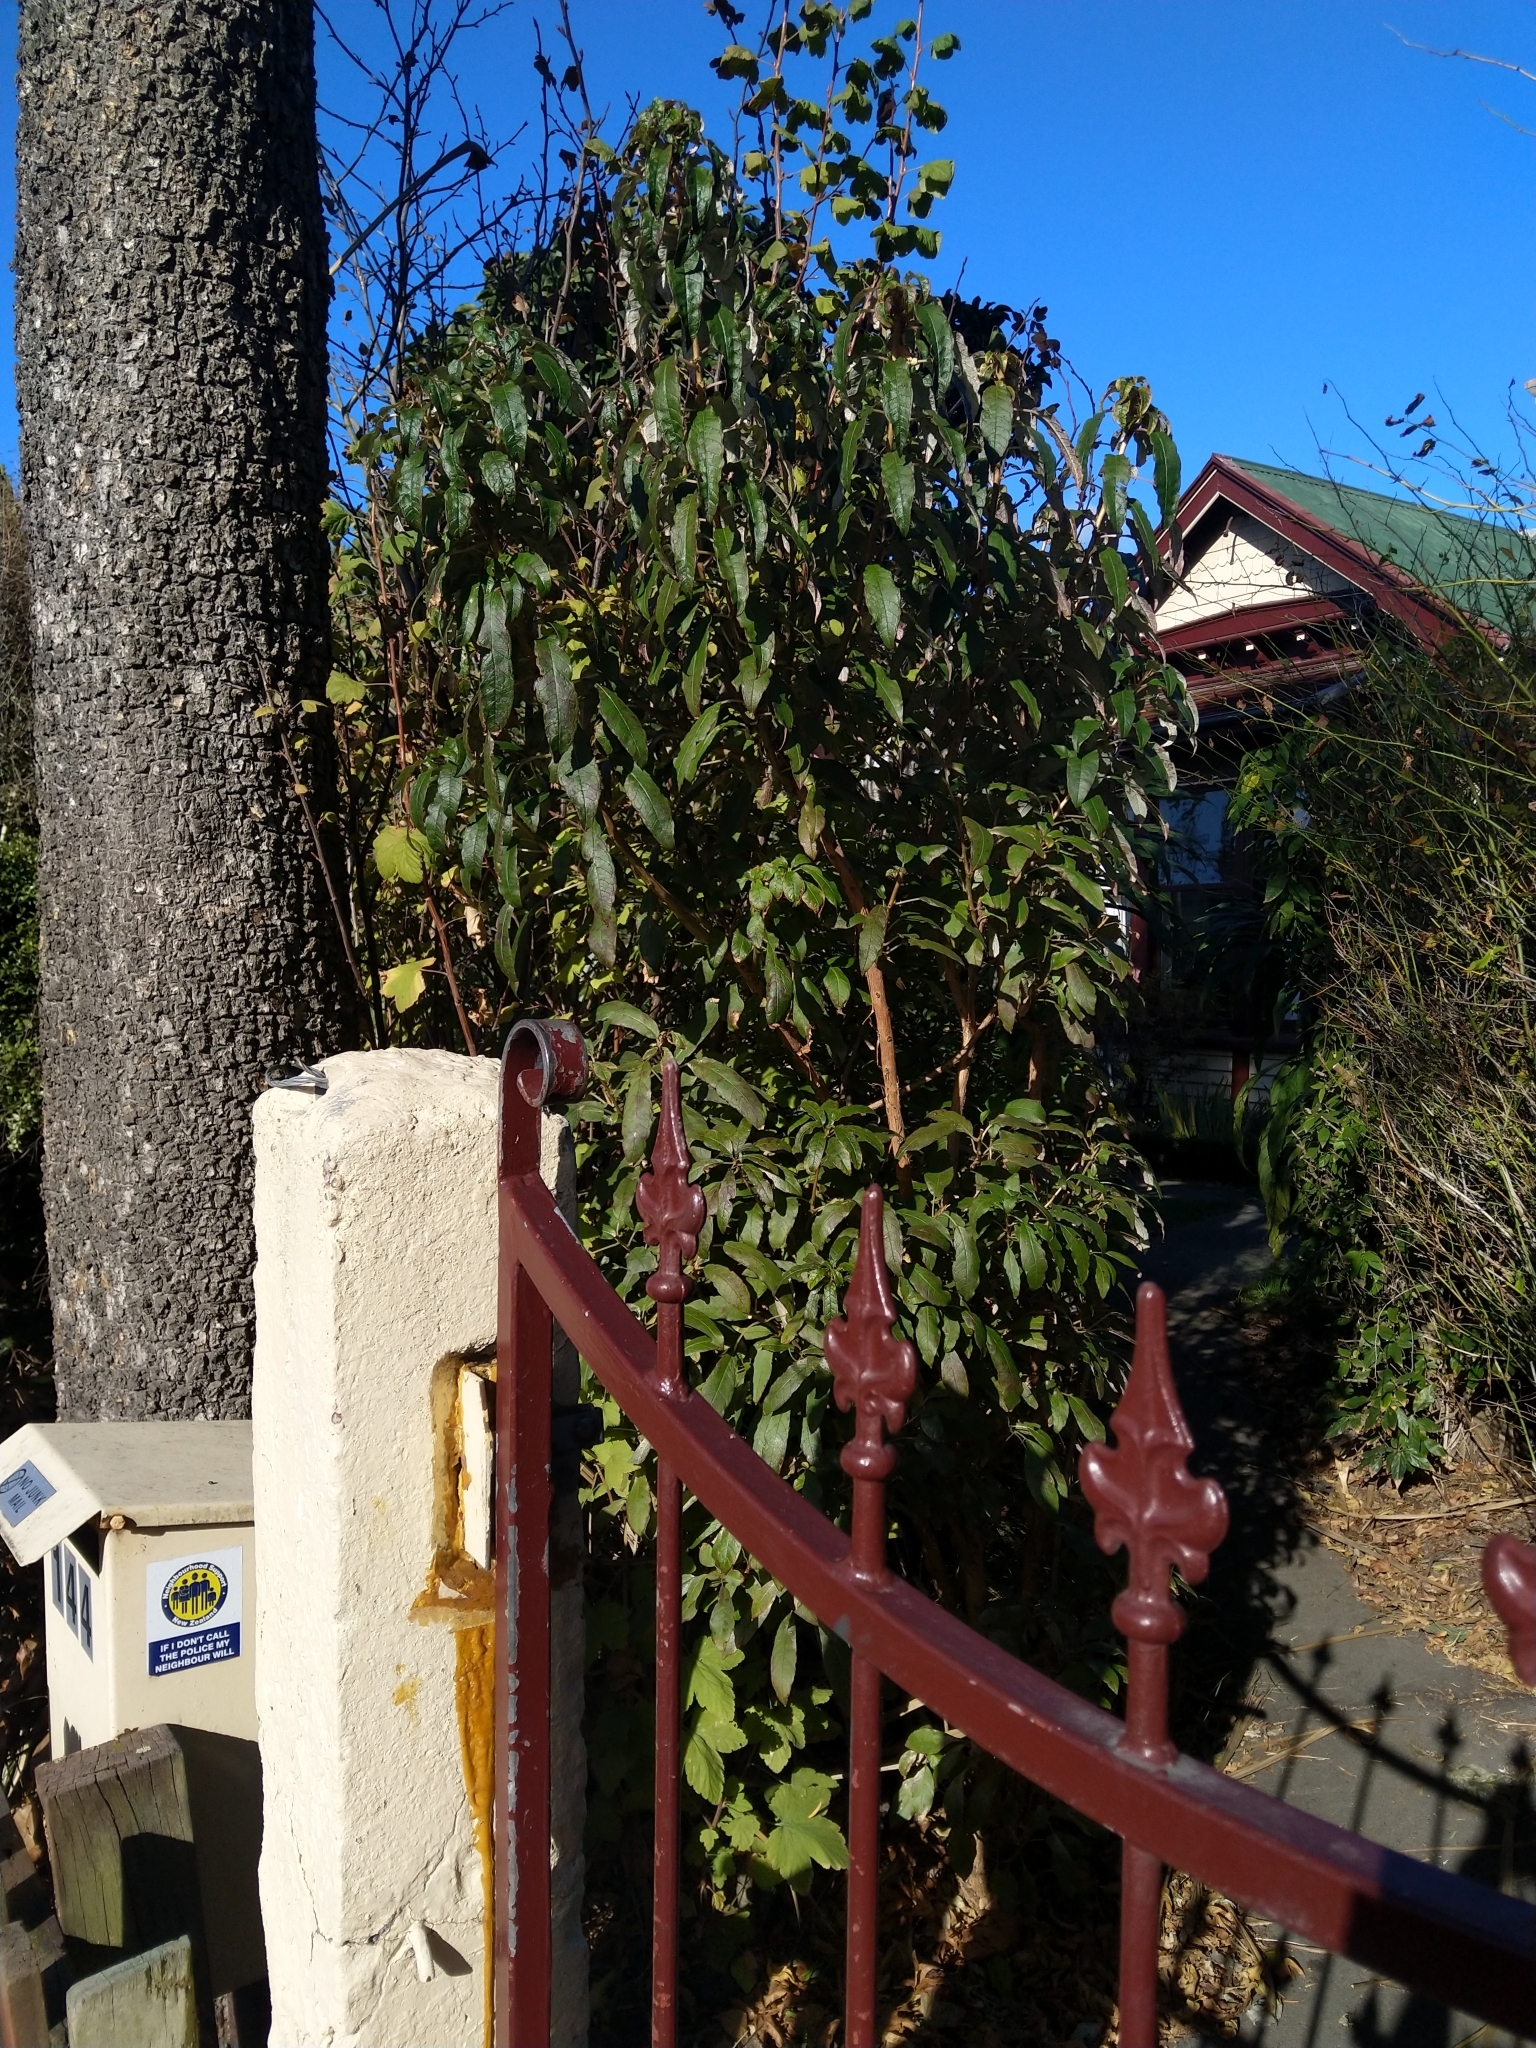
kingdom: Plantae
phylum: Tracheophyta
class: Magnoliopsida
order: Myrtales
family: Onagraceae
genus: Fuchsia
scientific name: Fuchsia excorticata
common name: Tree fuchsia
